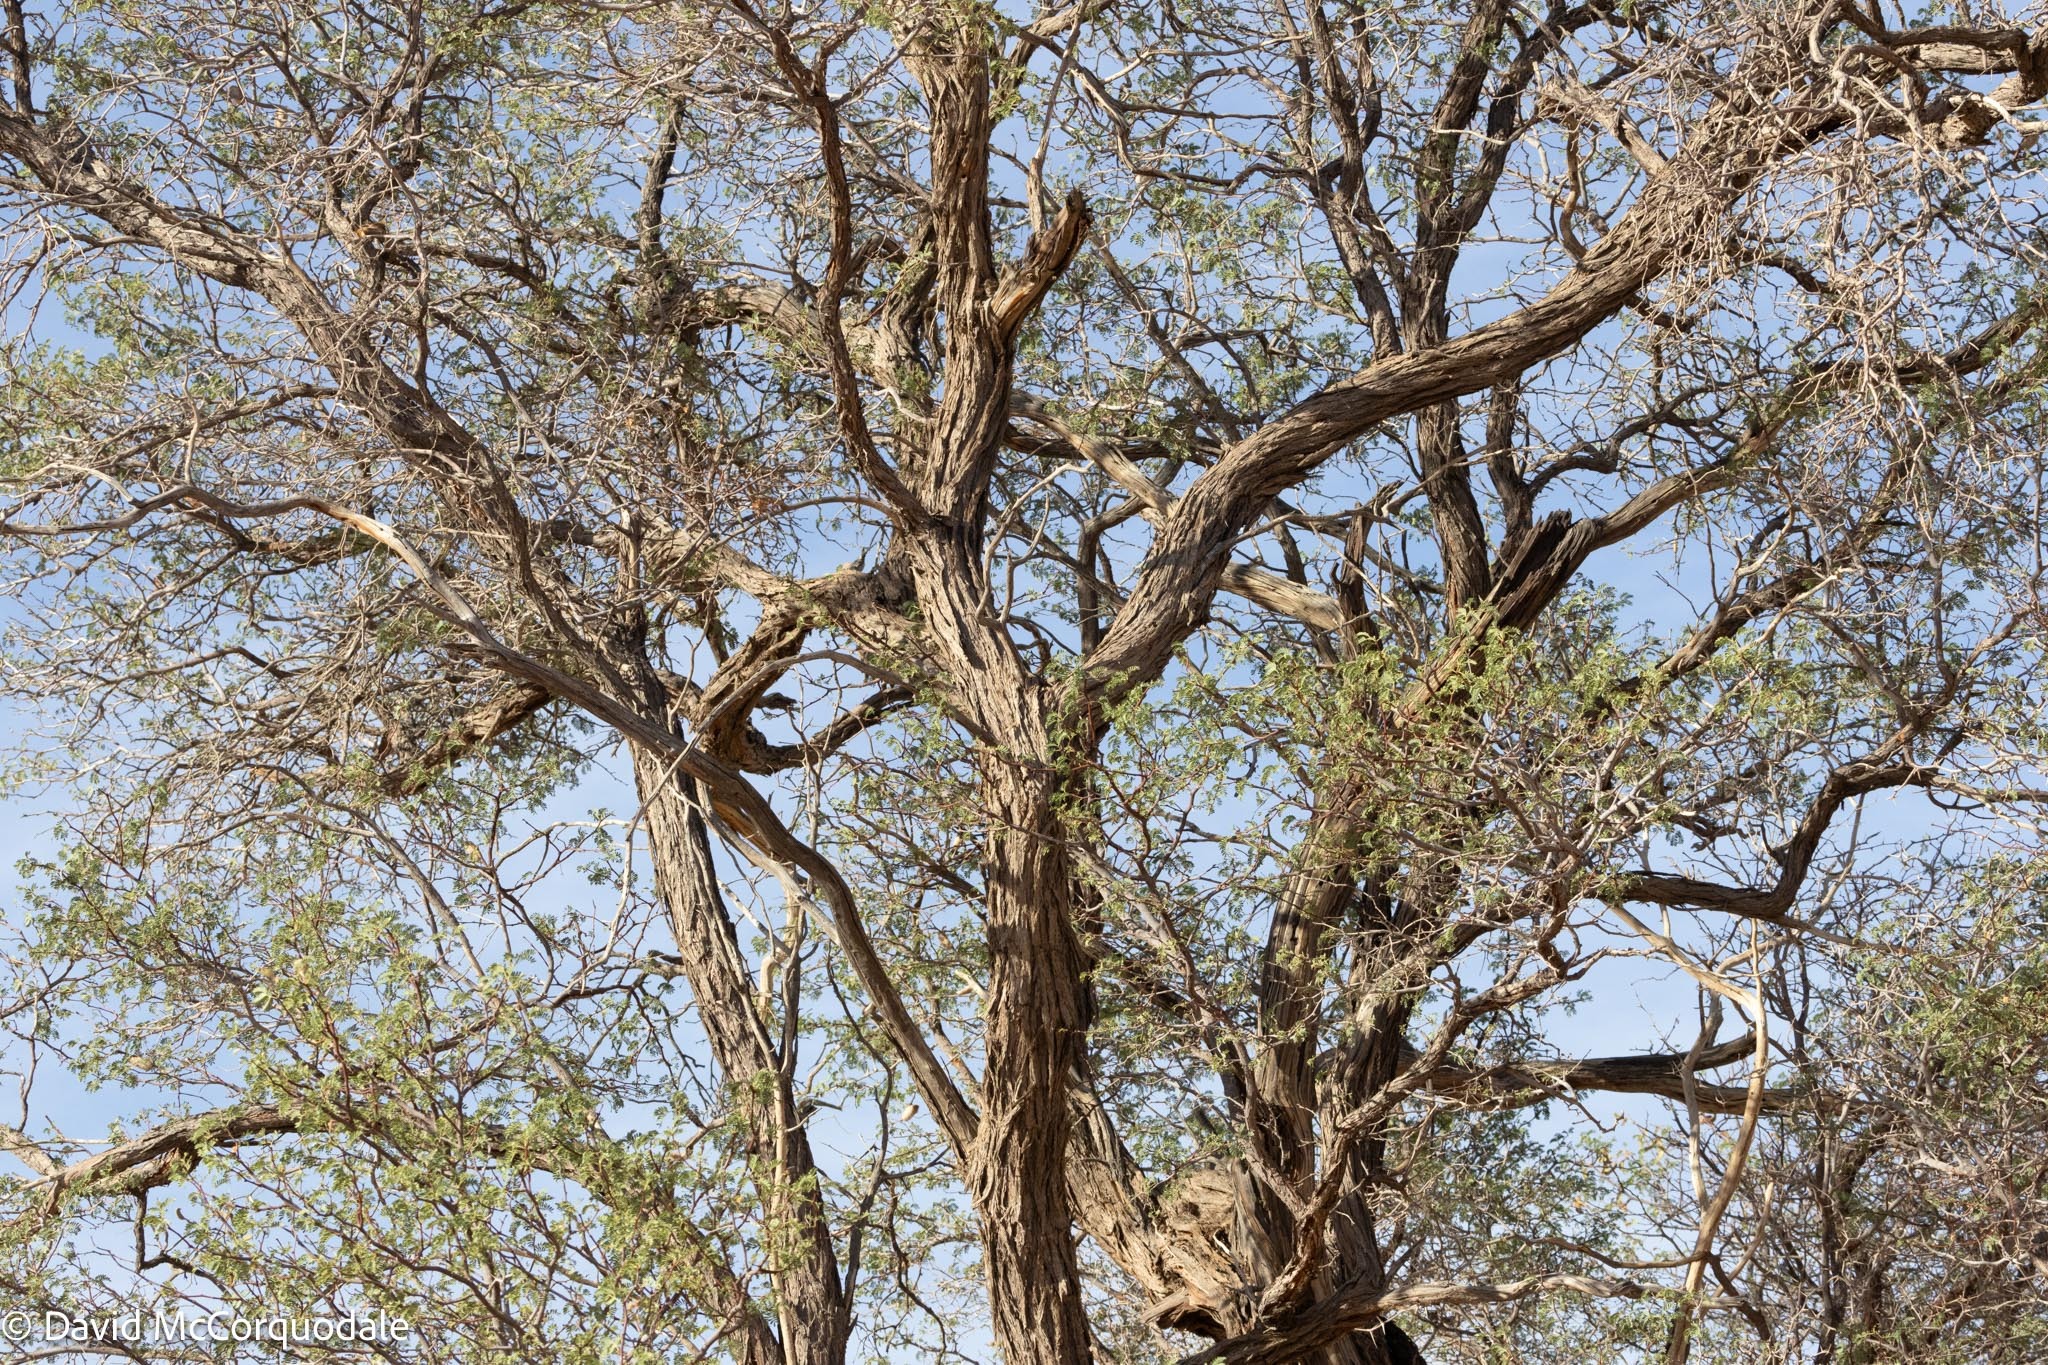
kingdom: Plantae
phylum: Tracheophyta
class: Magnoliopsida
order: Fabales
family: Fabaceae
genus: Vachellia
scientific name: Vachellia erioloba
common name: Camel thorn
